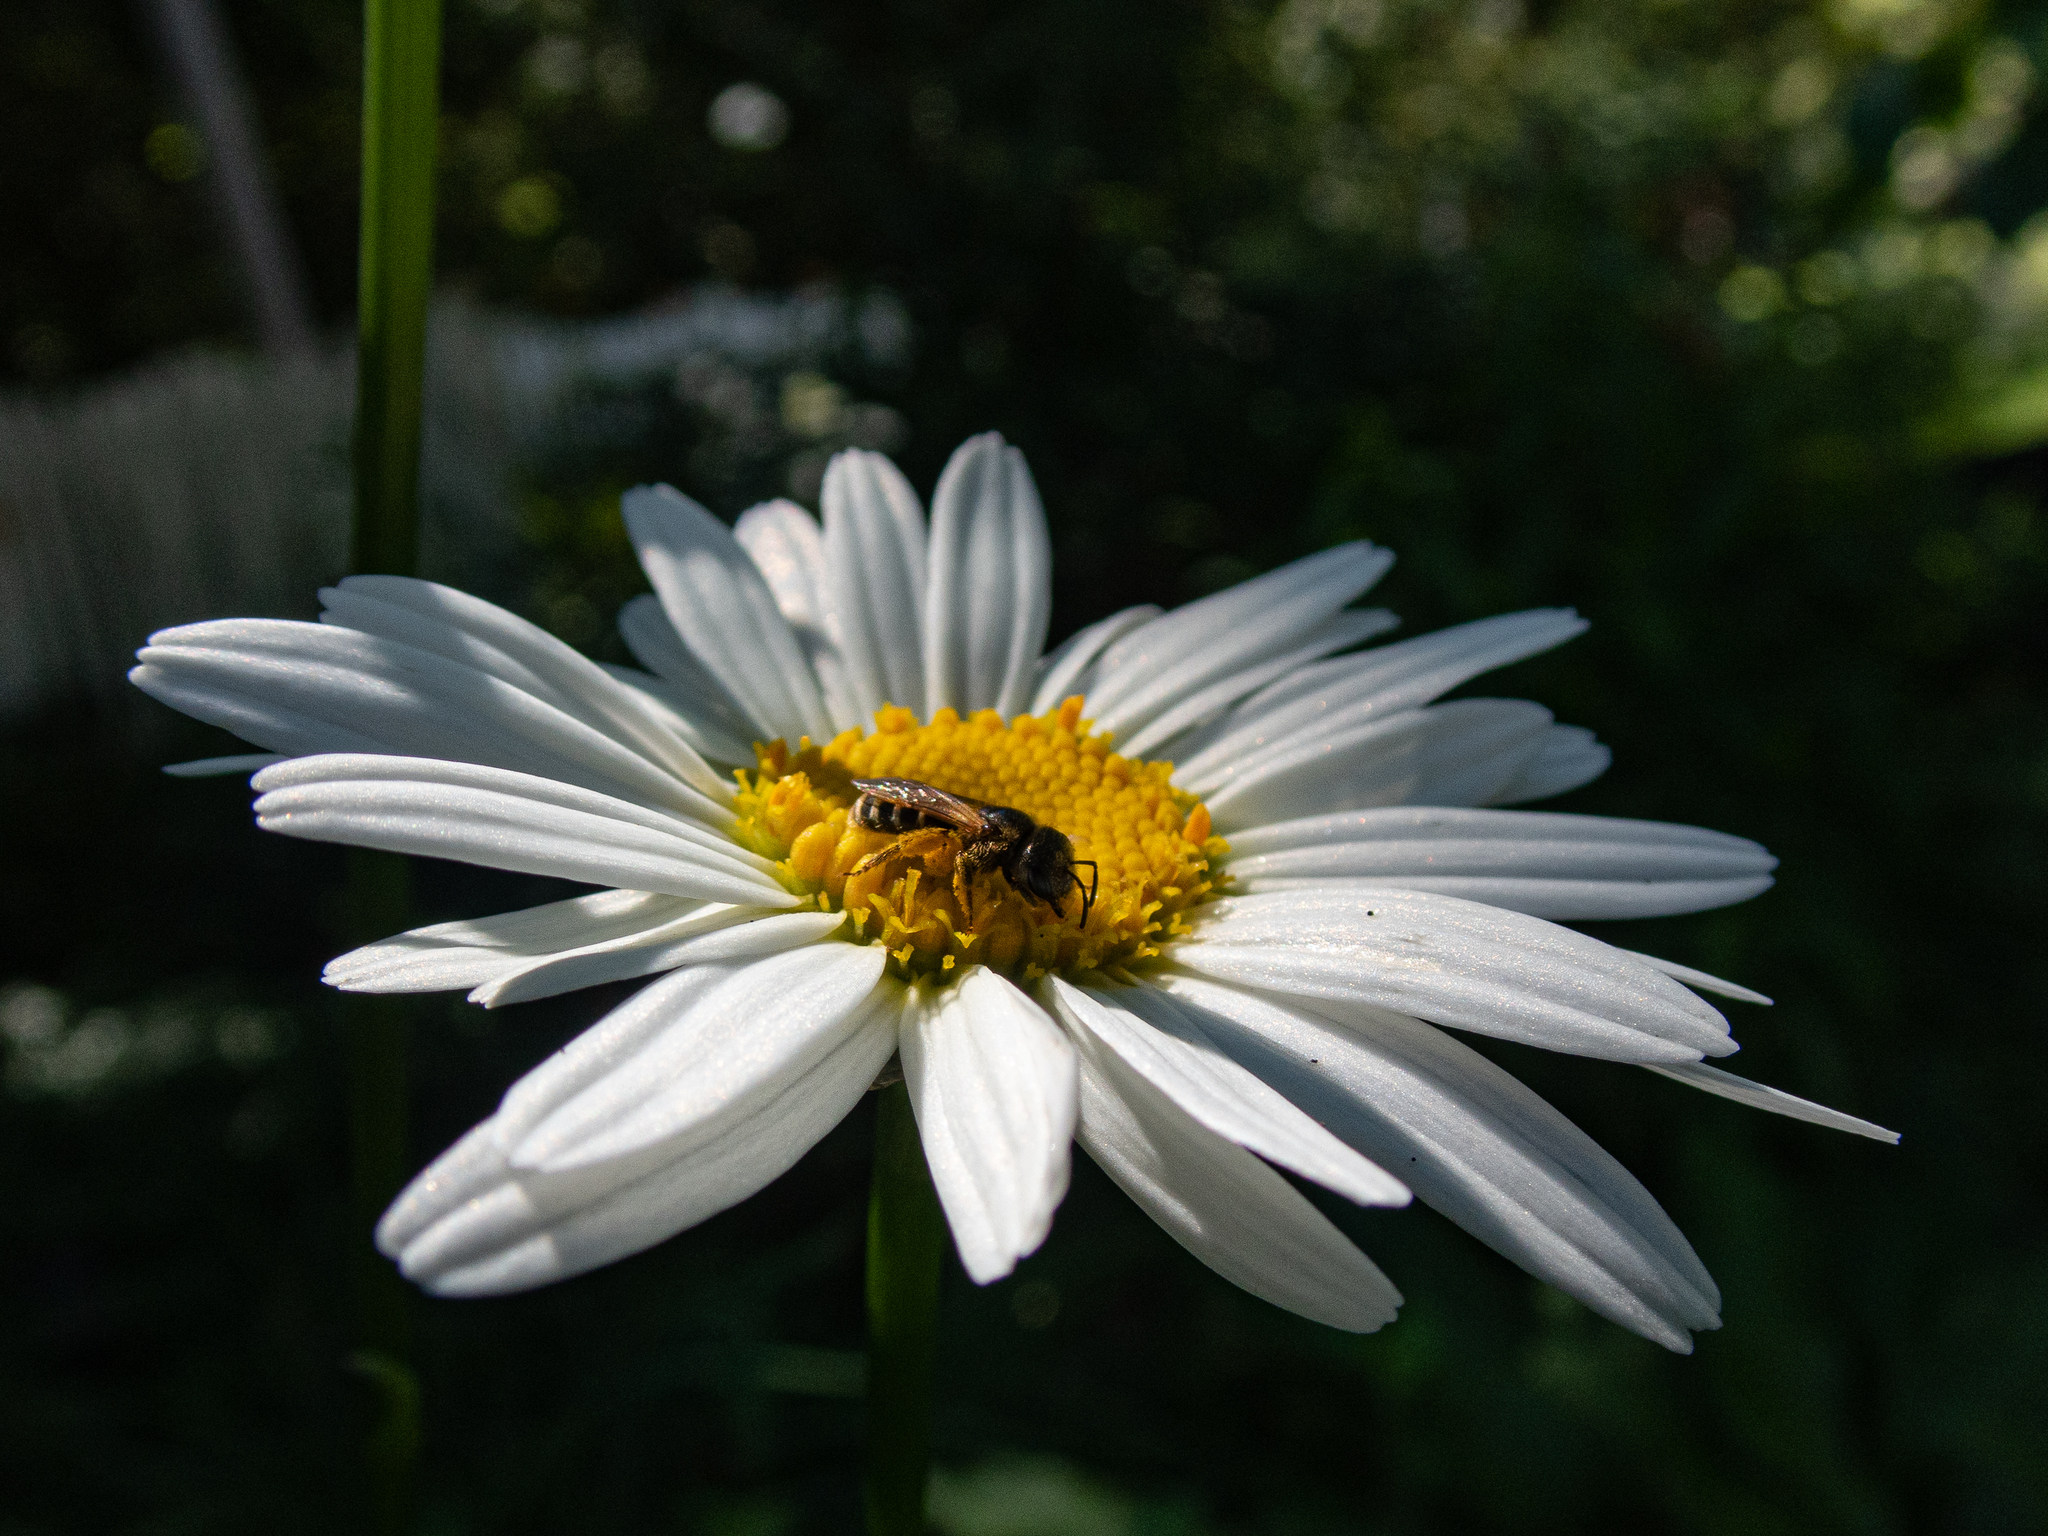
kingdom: Animalia
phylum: Arthropoda
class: Insecta
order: Hymenoptera
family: Halictidae
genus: Halictus
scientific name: Halictus ligatus
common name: Ligated furrow bee
